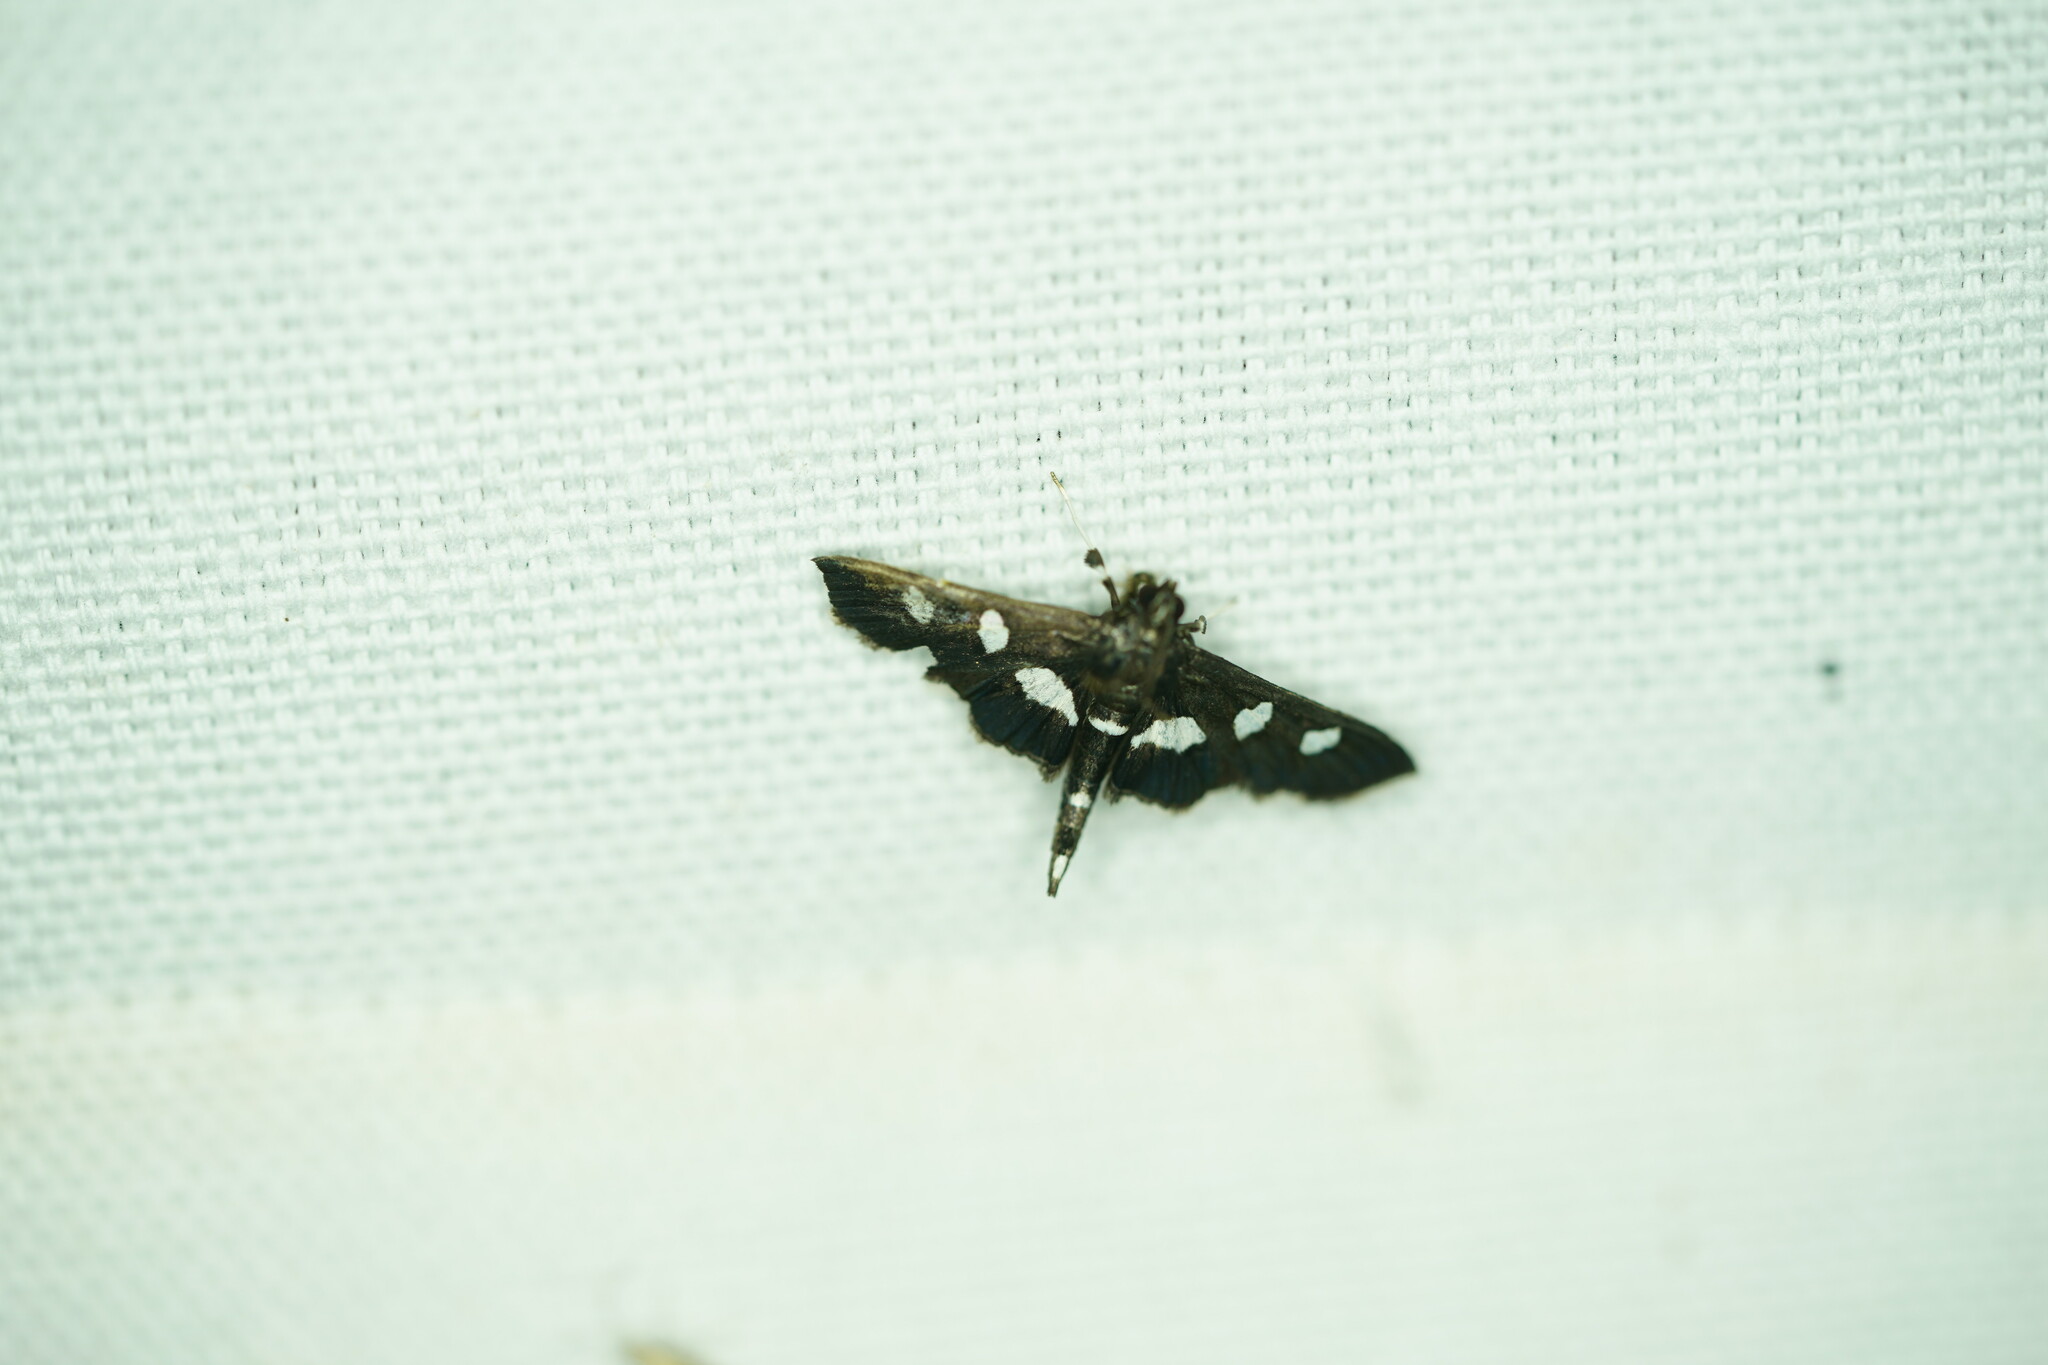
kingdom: Animalia
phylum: Arthropoda
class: Insecta
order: Lepidoptera
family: Crambidae
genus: Desmia
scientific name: Desmia
